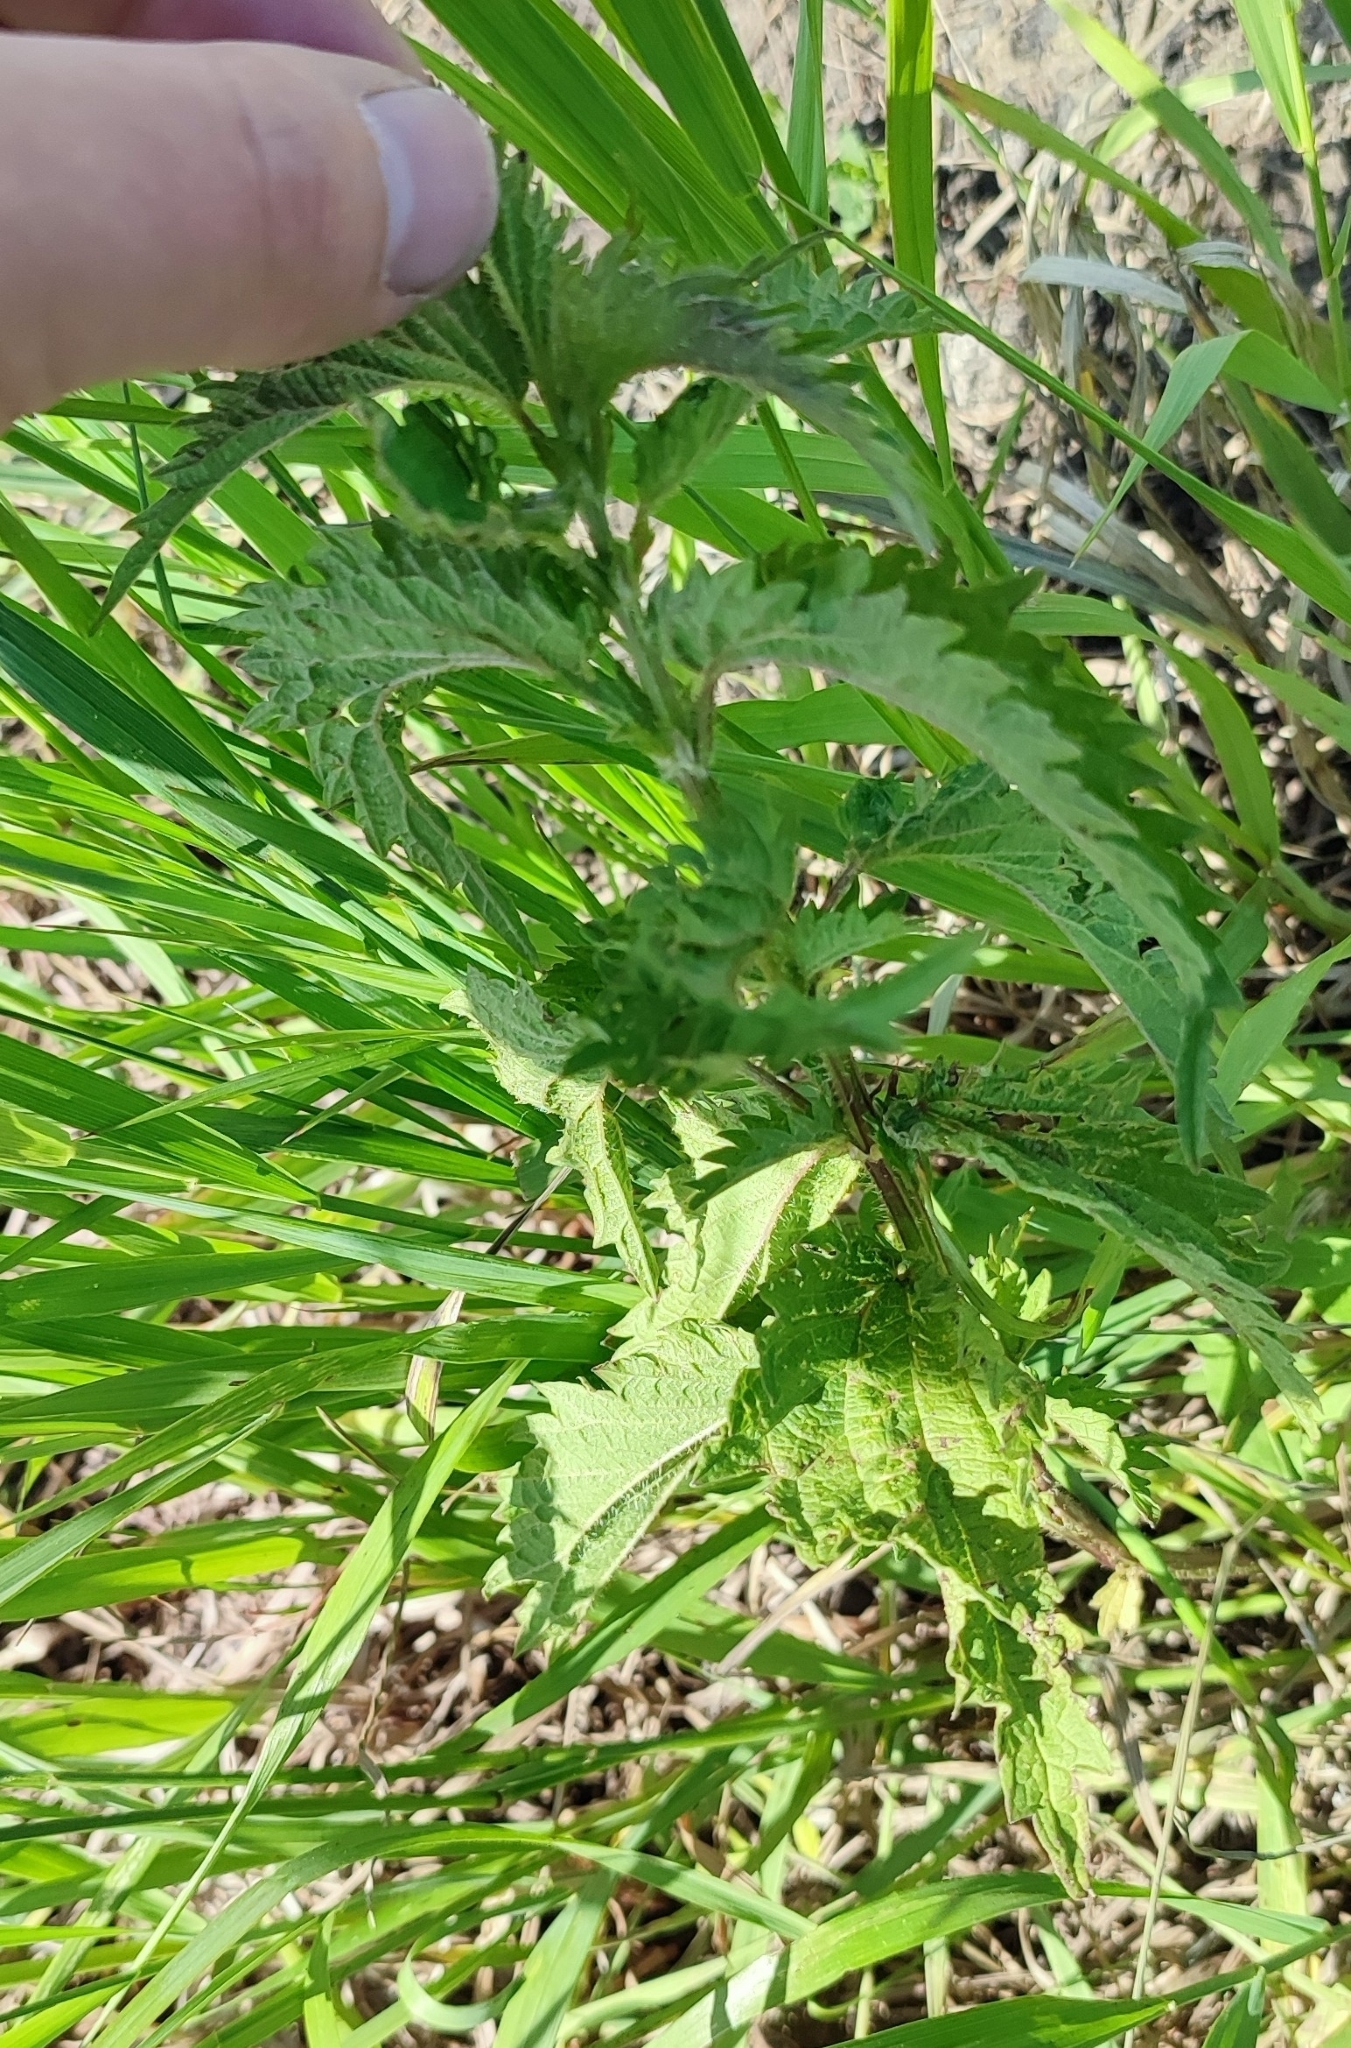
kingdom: Plantae
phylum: Tracheophyta
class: Magnoliopsida
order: Rosales
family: Urticaceae
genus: Urtica
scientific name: Urtica dioica
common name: Common nettle
